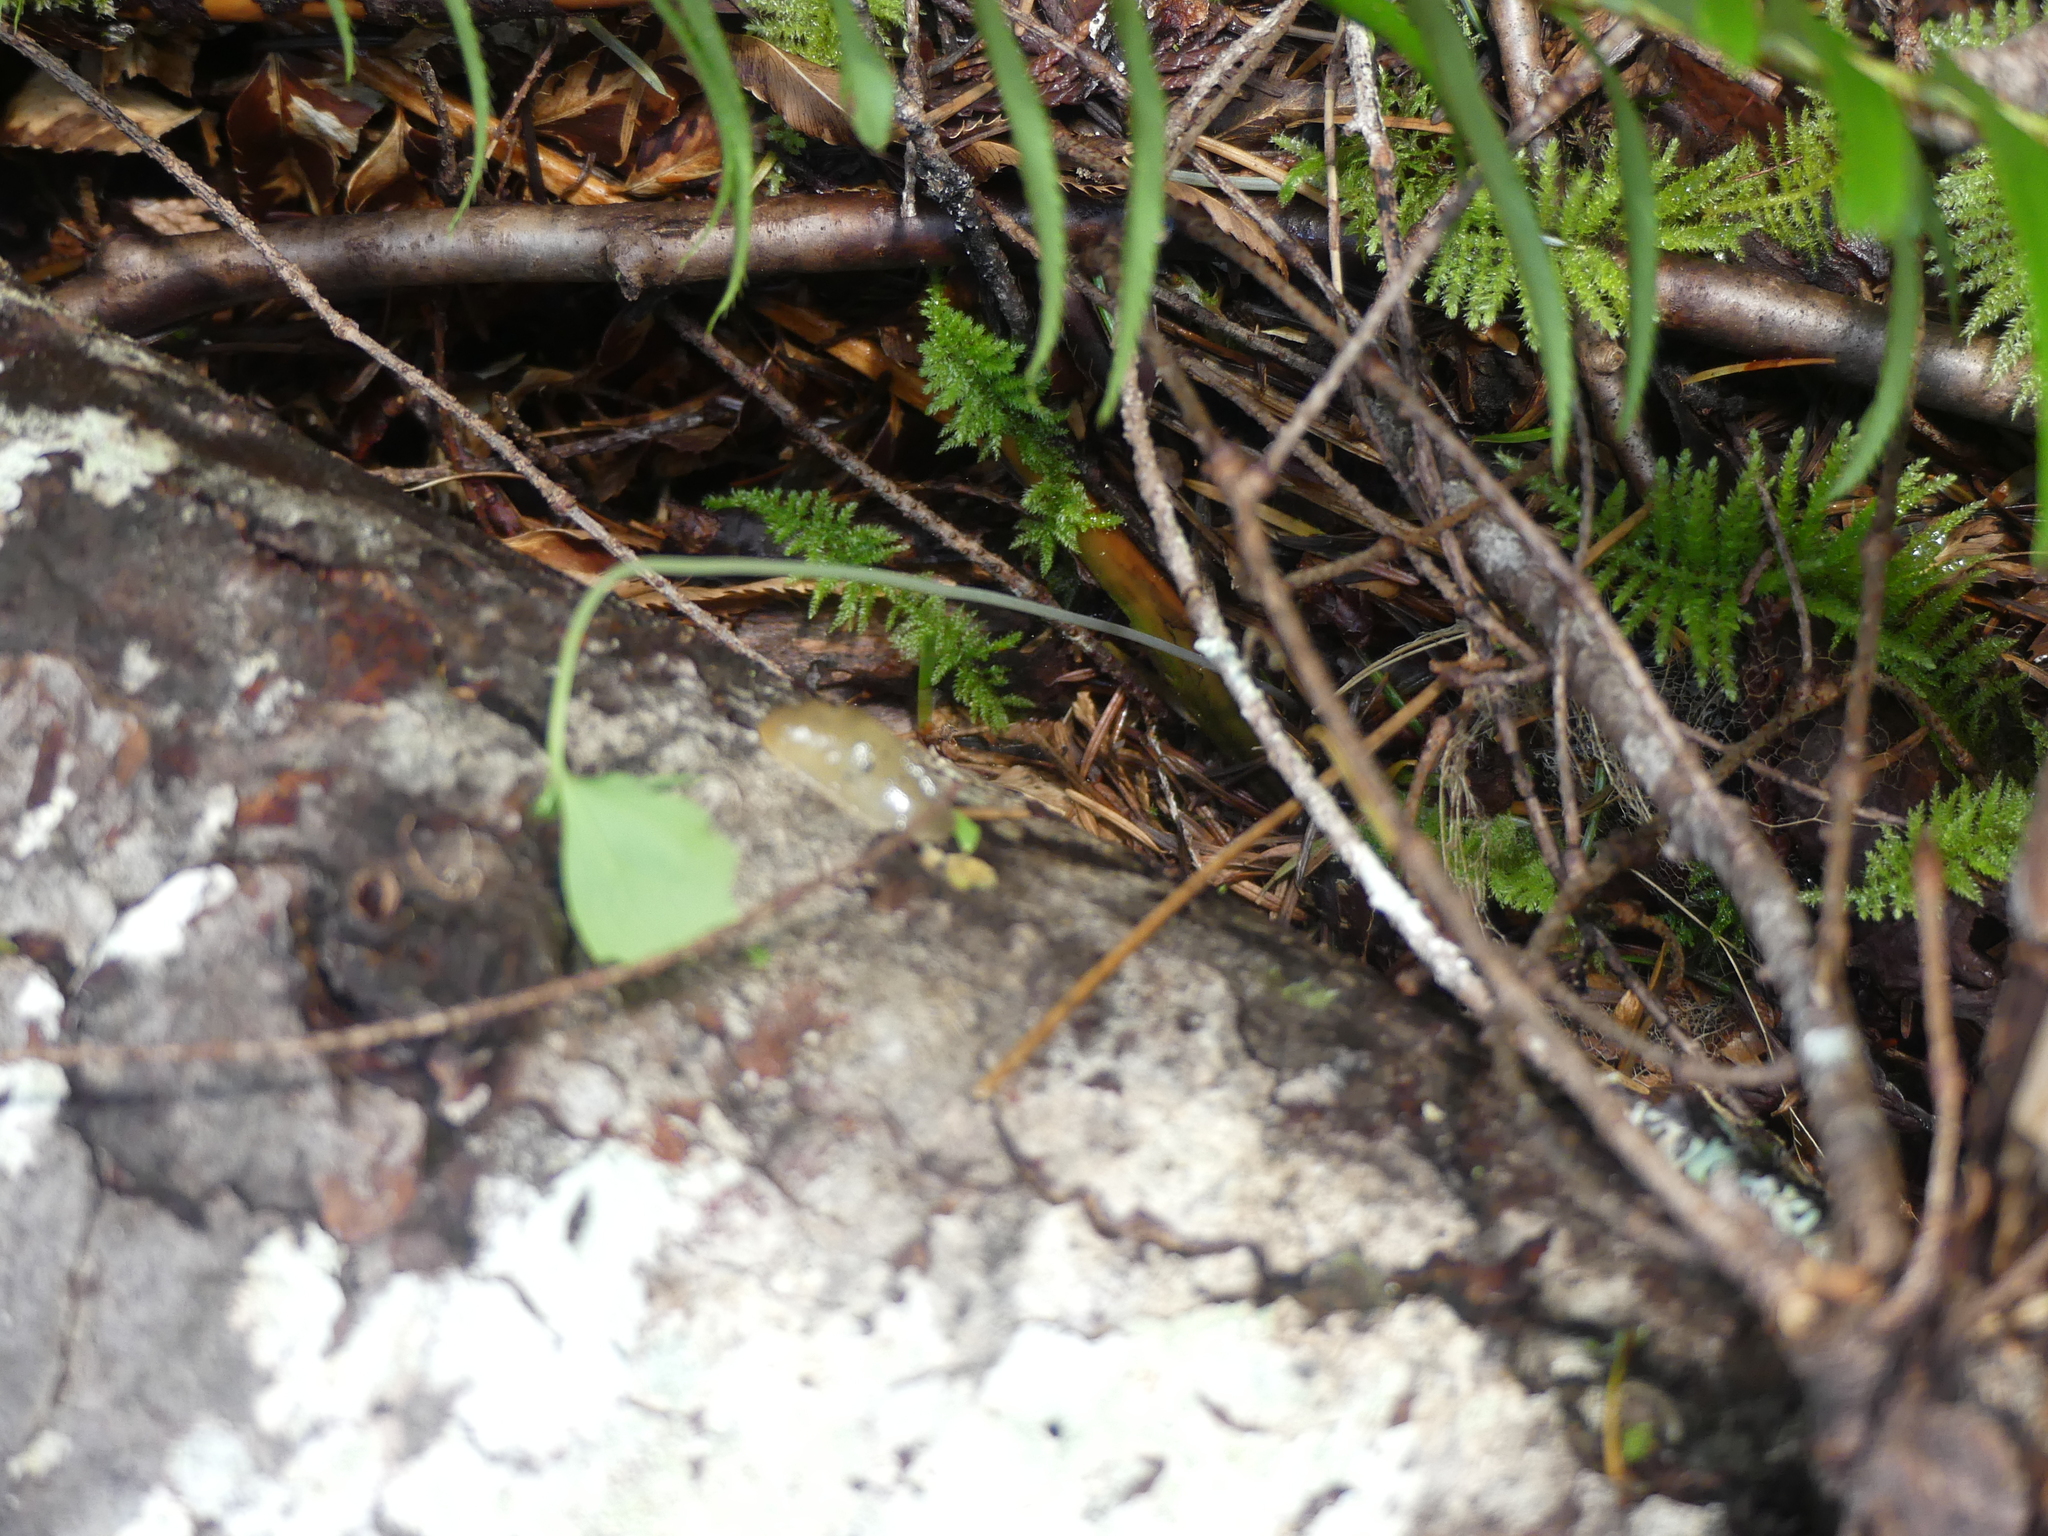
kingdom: Animalia
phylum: Mollusca
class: Gastropoda
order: Stylommatophora
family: Ariolimacidae
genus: Ariolimax
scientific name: Ariolimax columbianus
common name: Pacific banana slug
